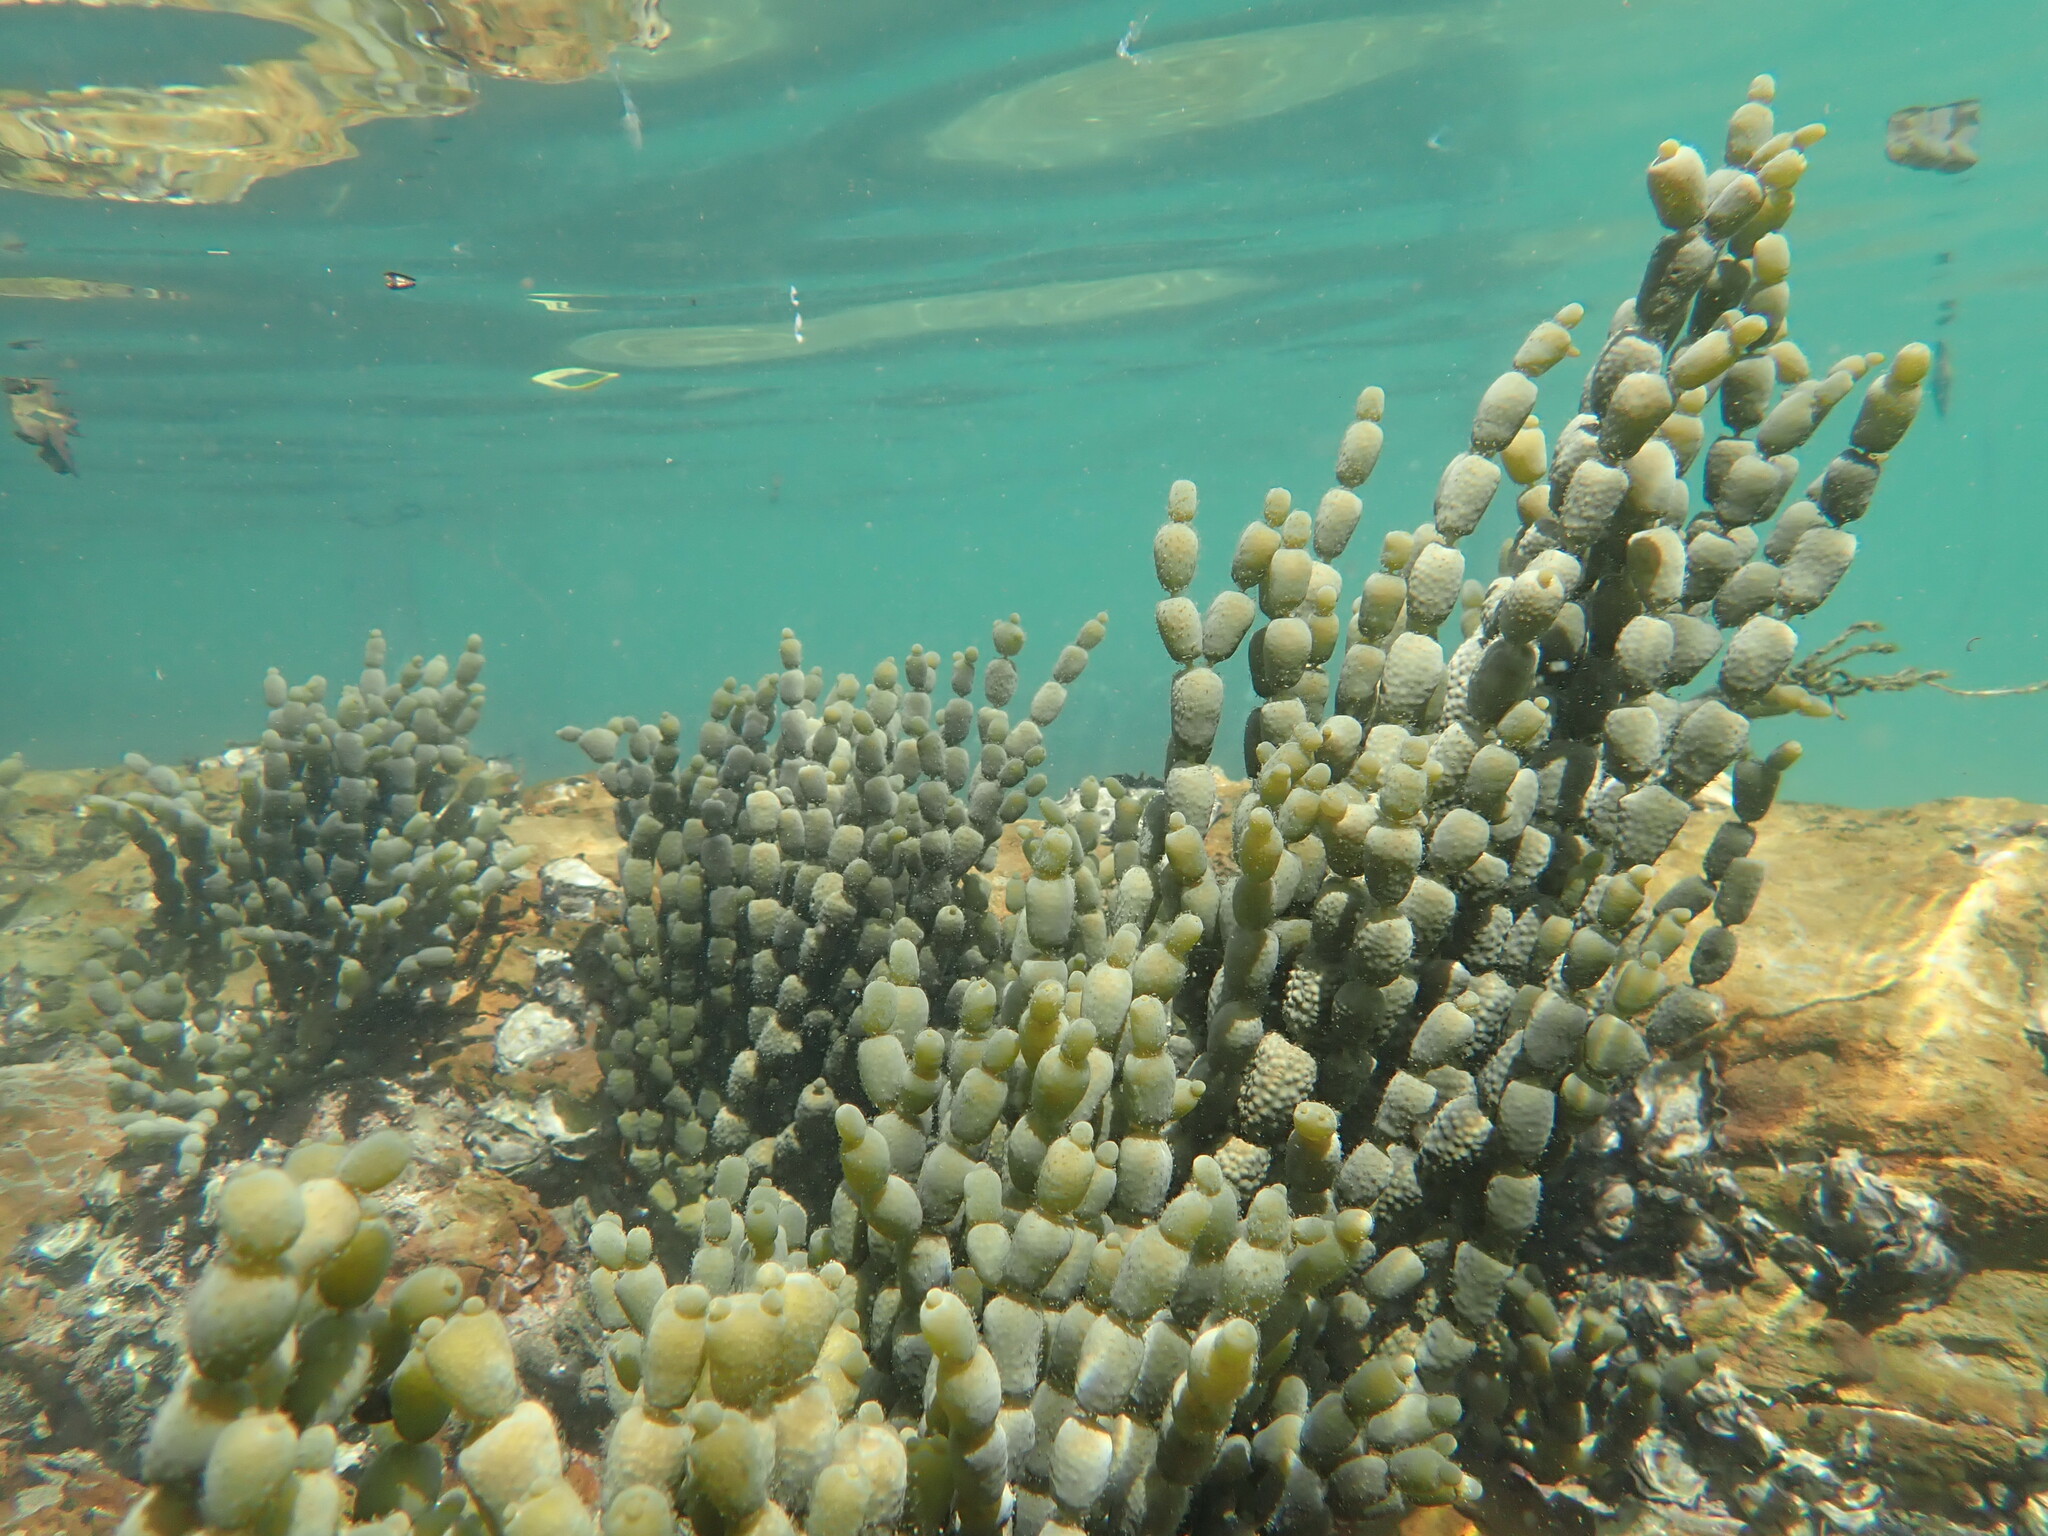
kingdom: Chromista
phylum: Ochrophyta
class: Phaeophyceae
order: Fucales
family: Hormosiraceae
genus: Hormosira
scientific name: Hormosira banksii
